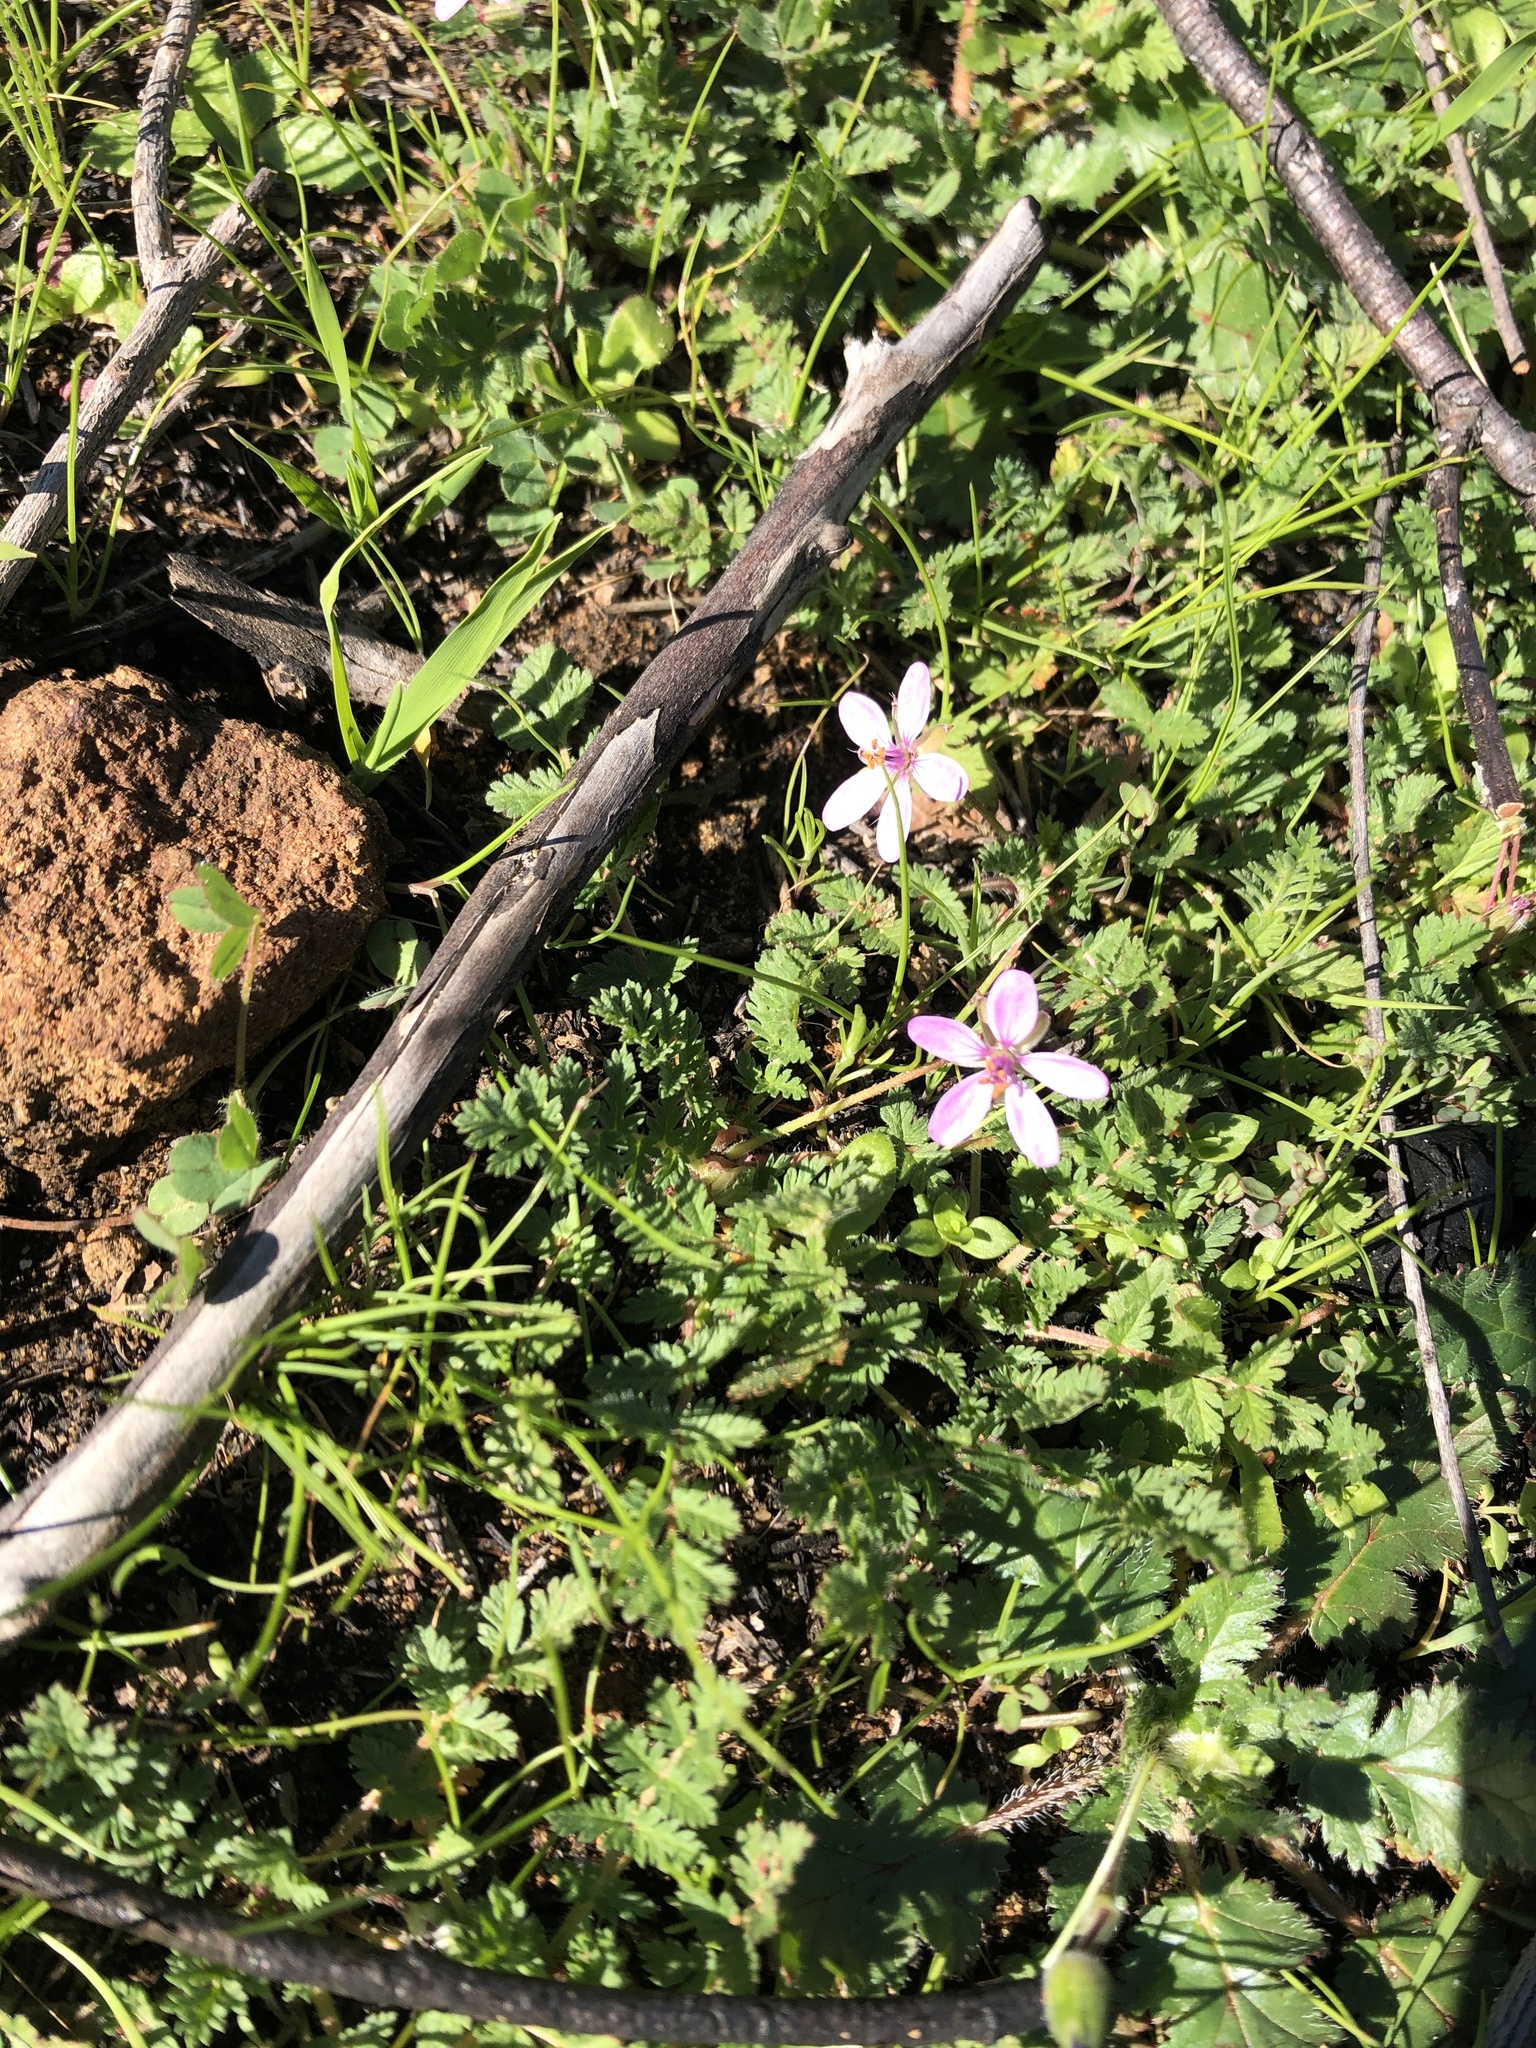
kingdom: Plantae
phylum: Tracheophyta
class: Magnoliopsida
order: Geraniales
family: Geraniaceae
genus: Erodium
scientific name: Erodium cicutarium
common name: Common stork's-bill
